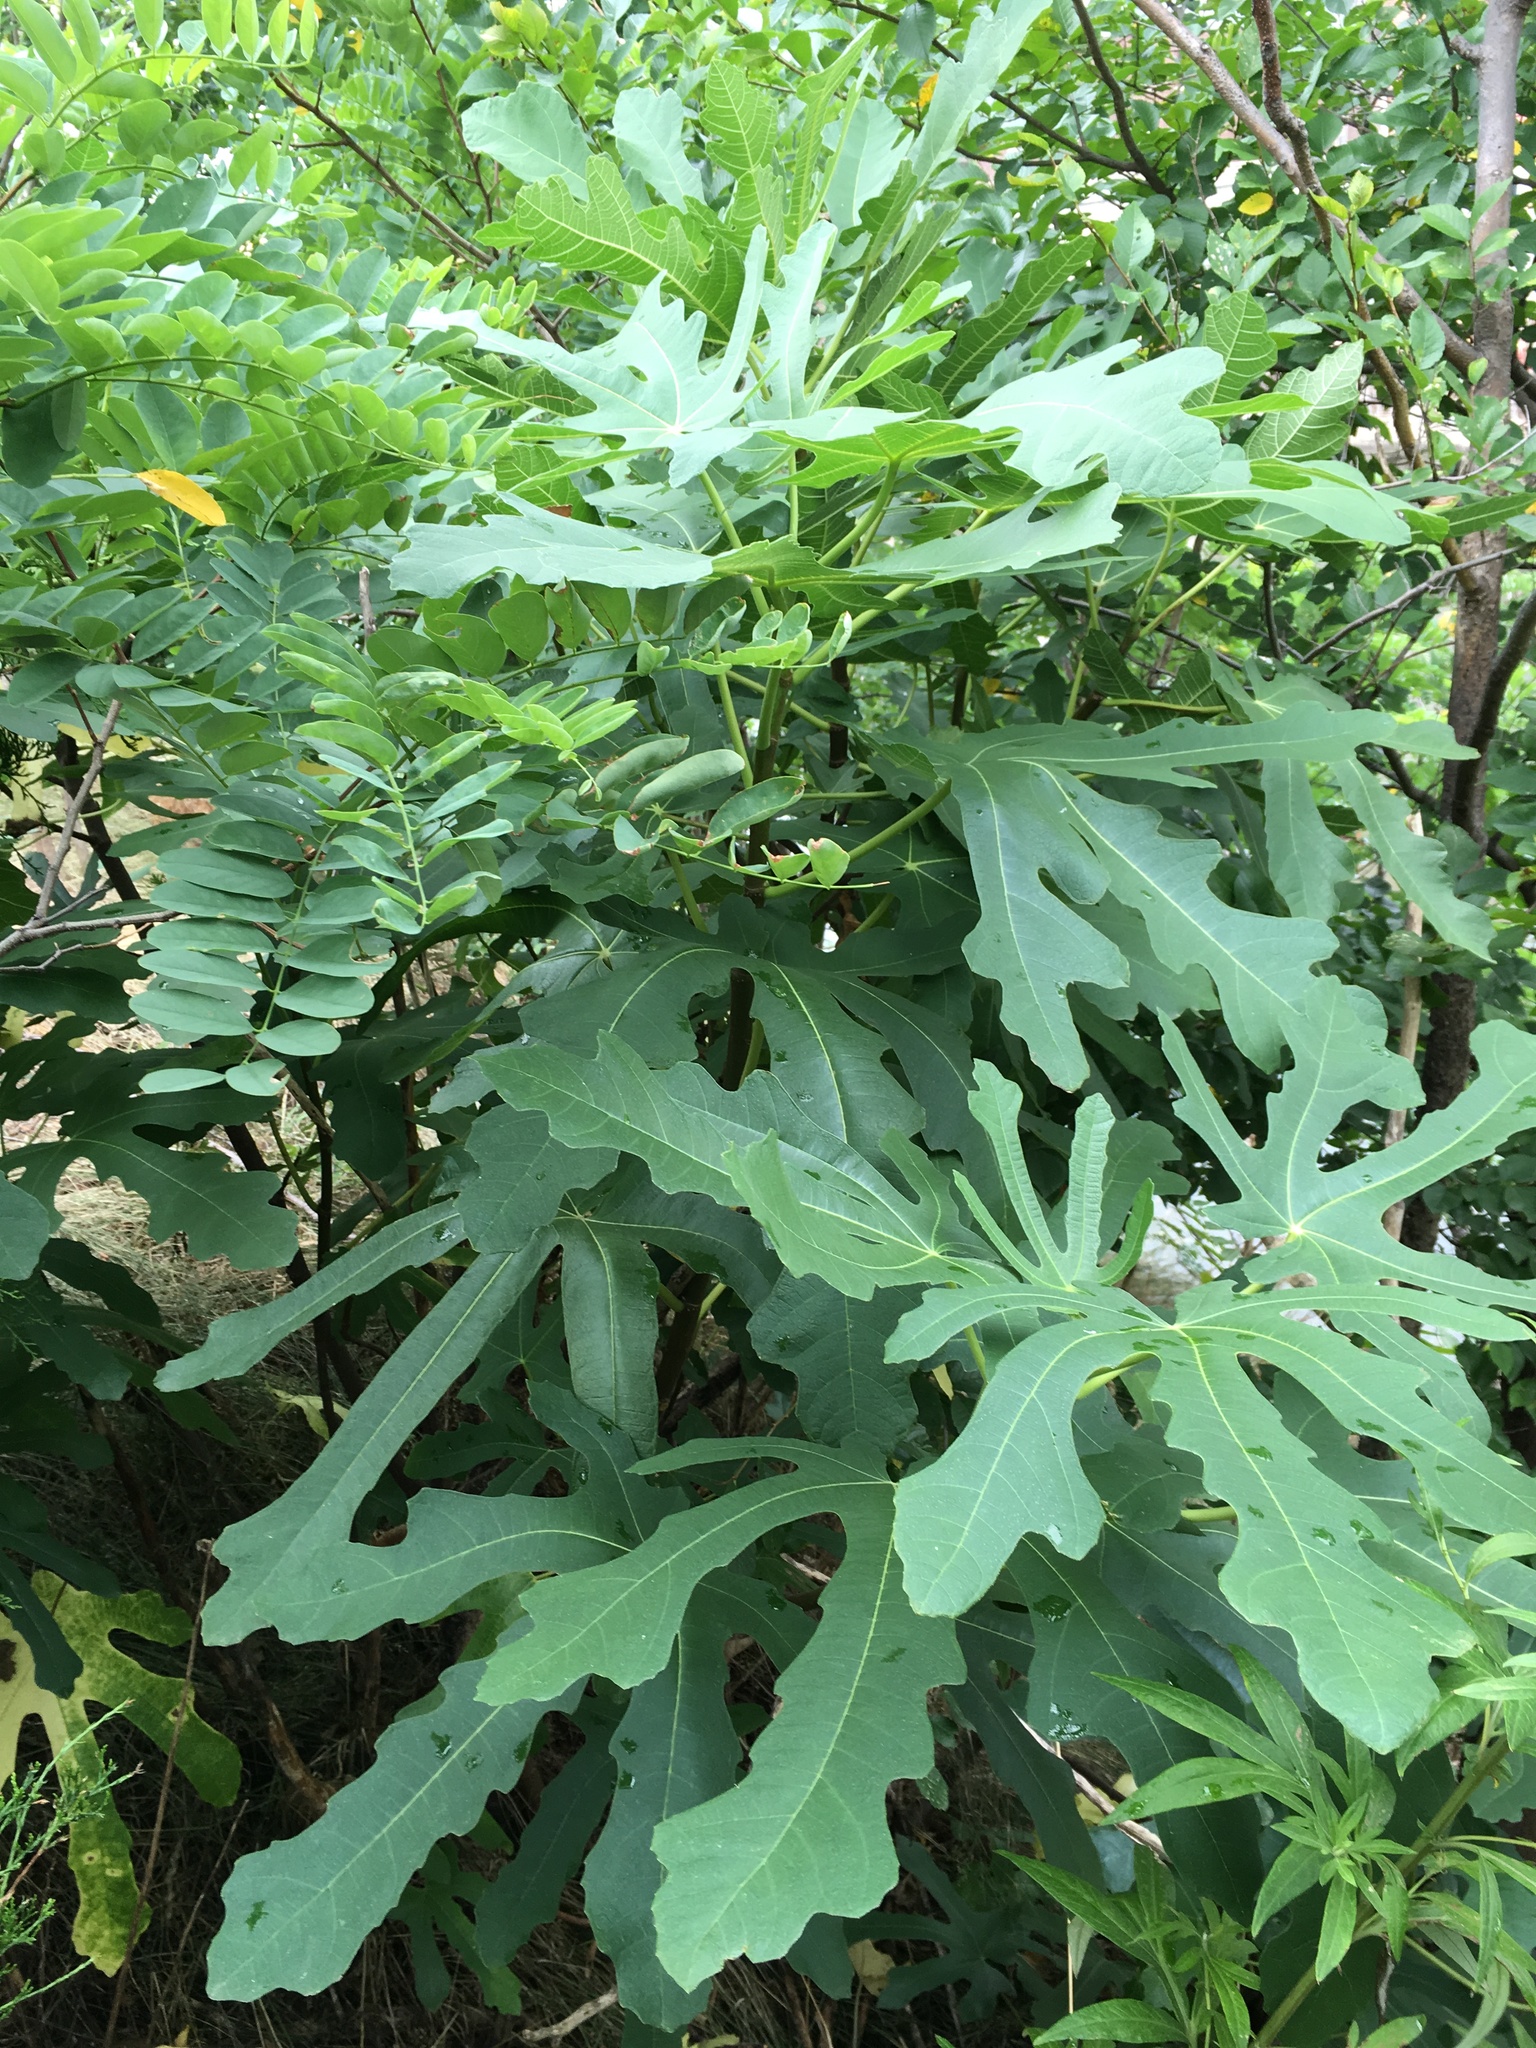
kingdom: Plantae
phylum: Tracheophyta
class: Magnoliopsida
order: Rosales
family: Moraceae
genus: Ficus
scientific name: Ficus carica
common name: Fig
